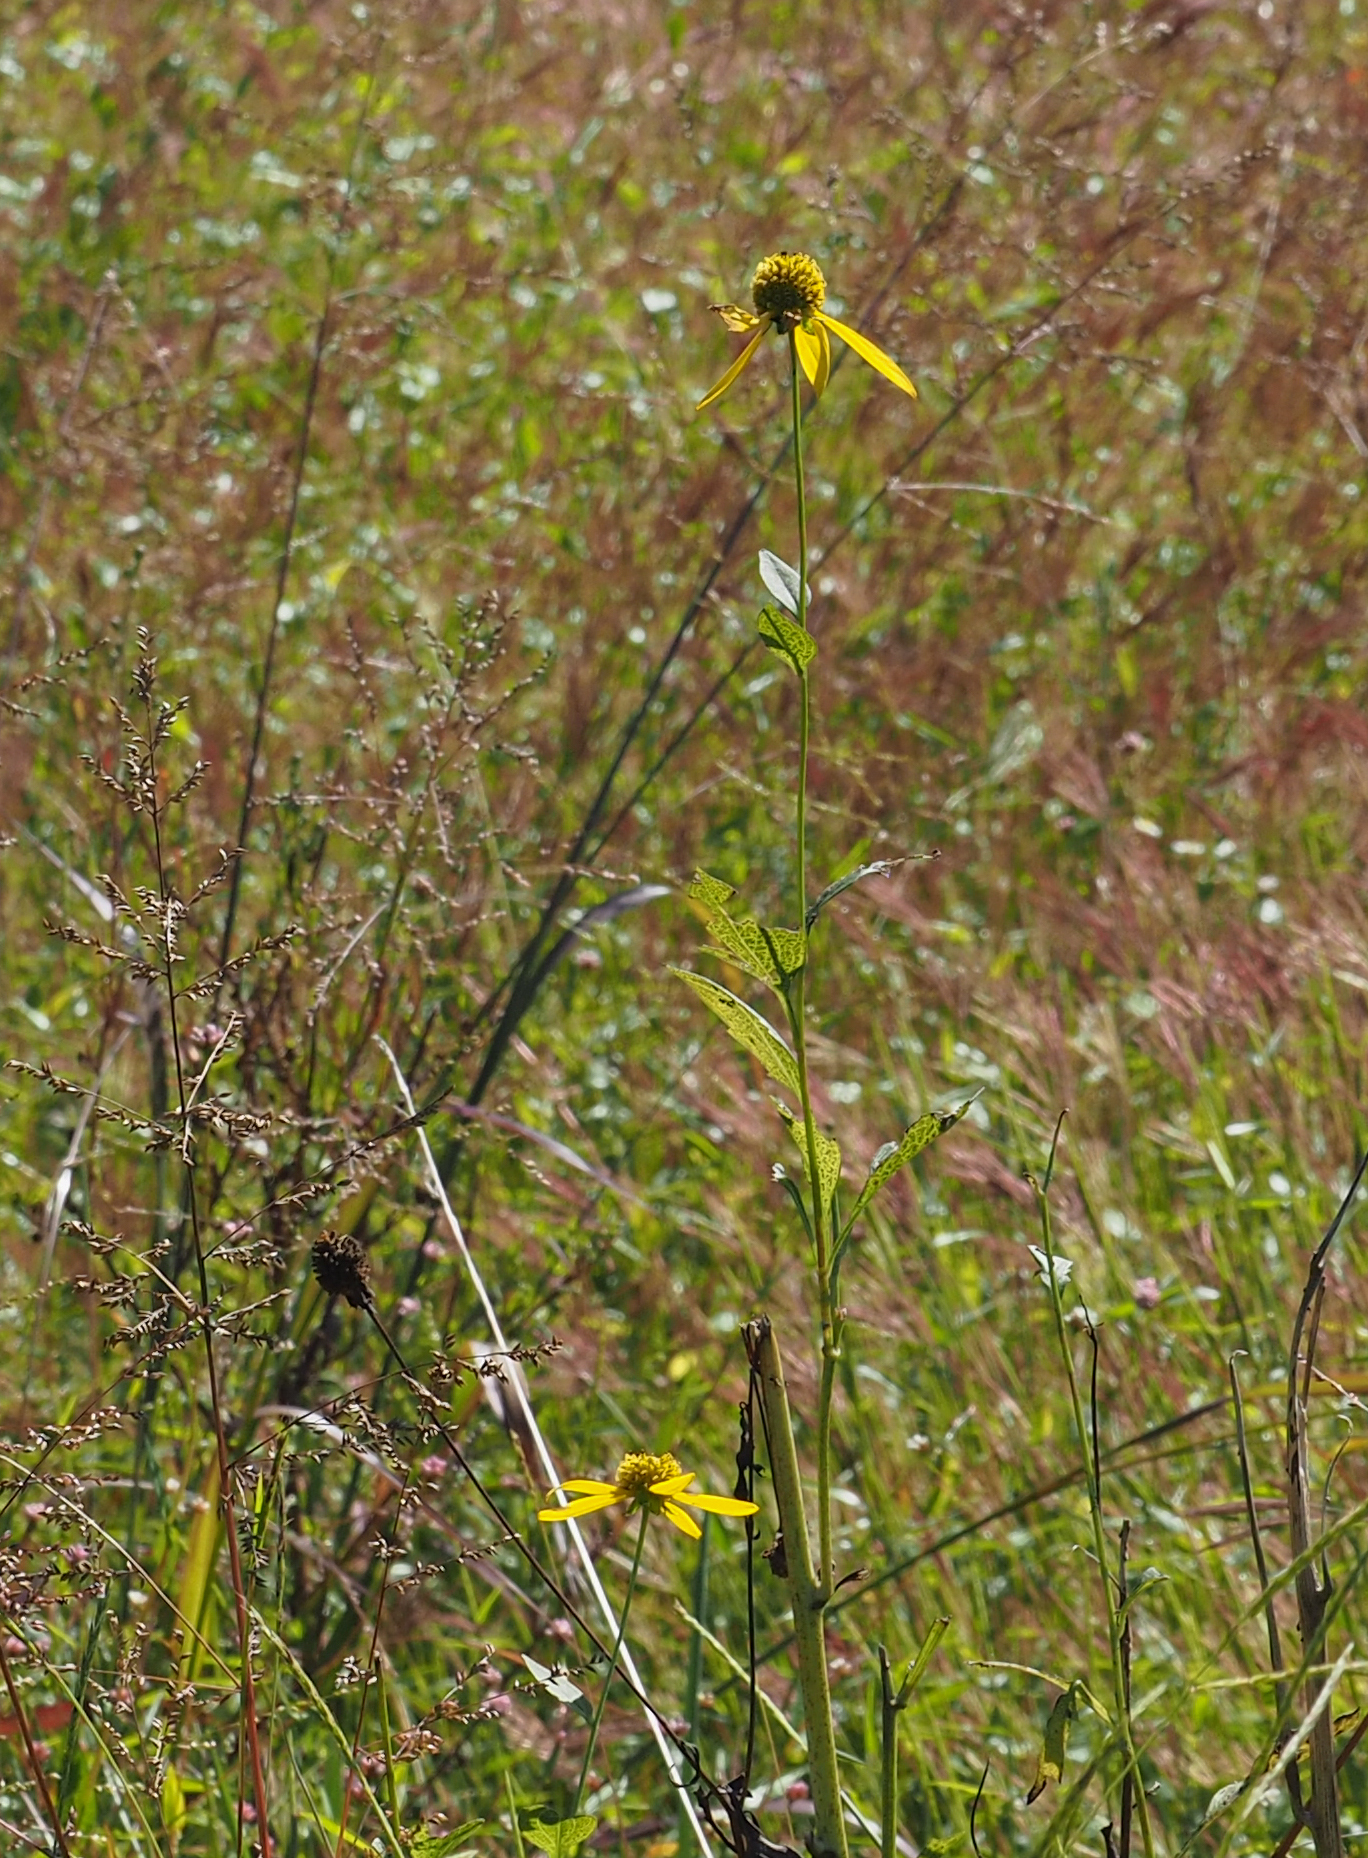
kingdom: Plantae
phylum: Tracheophyta
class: Magnoliopsida
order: Asterales
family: Asteraceae
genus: Rudbeckia
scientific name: Rudbeckia laciniata
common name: Coneflower
